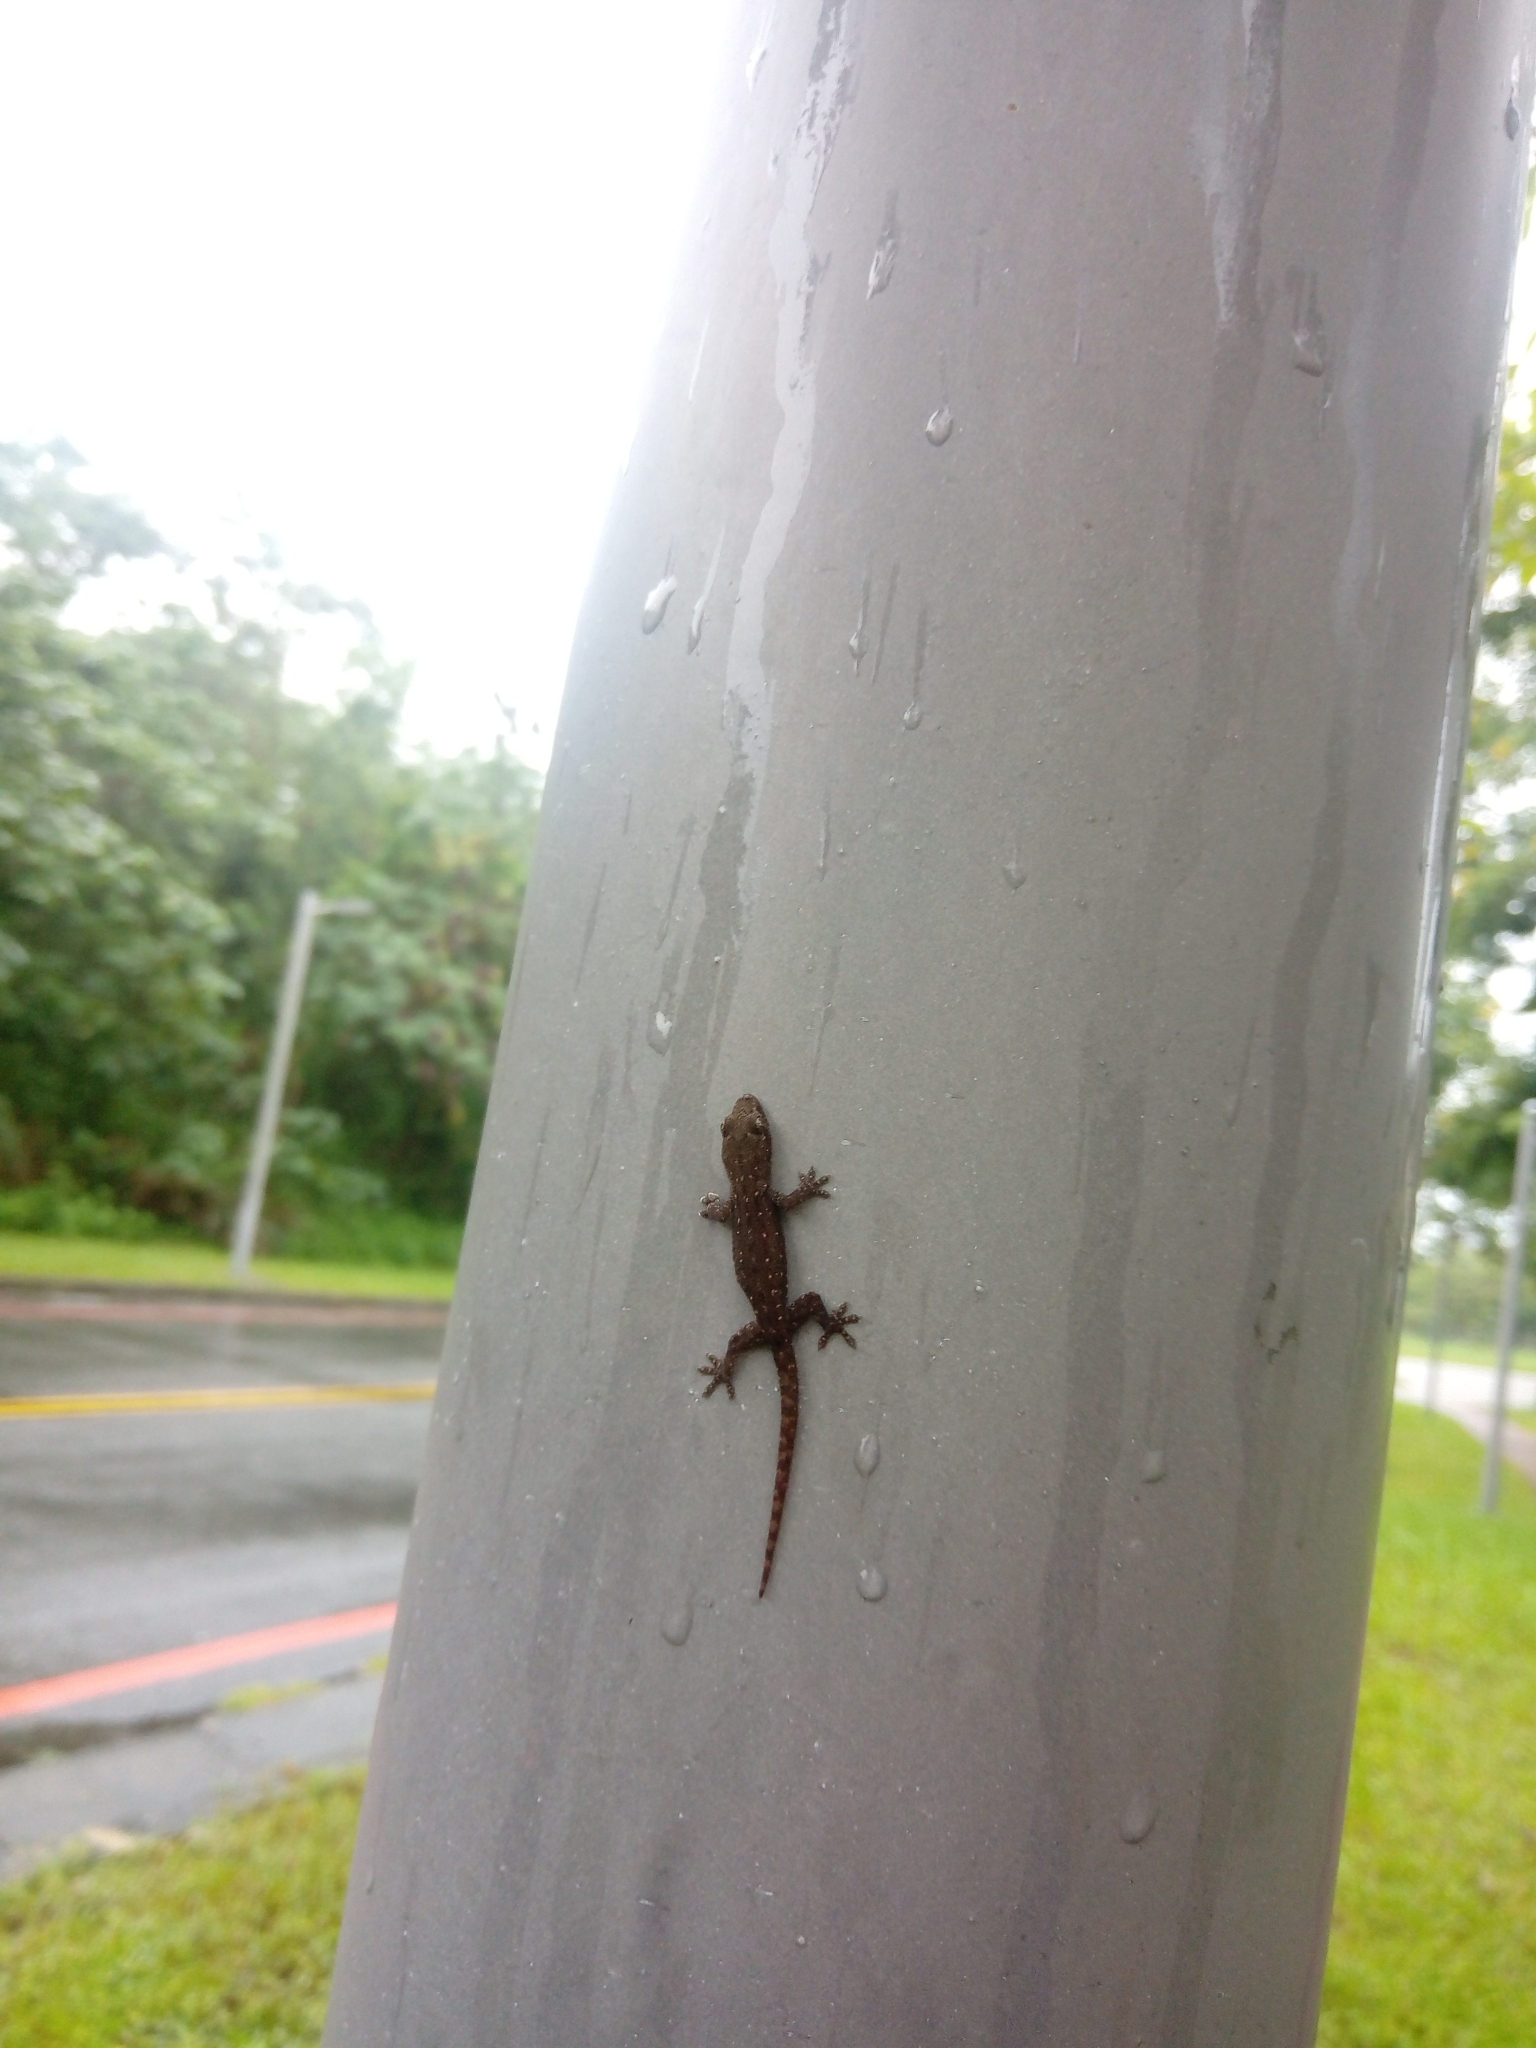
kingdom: Animalia
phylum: Chordata
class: Squamata
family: Gekkonidae
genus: Hemidactylus
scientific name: Hemidactylus frenatus
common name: Common house gecko
